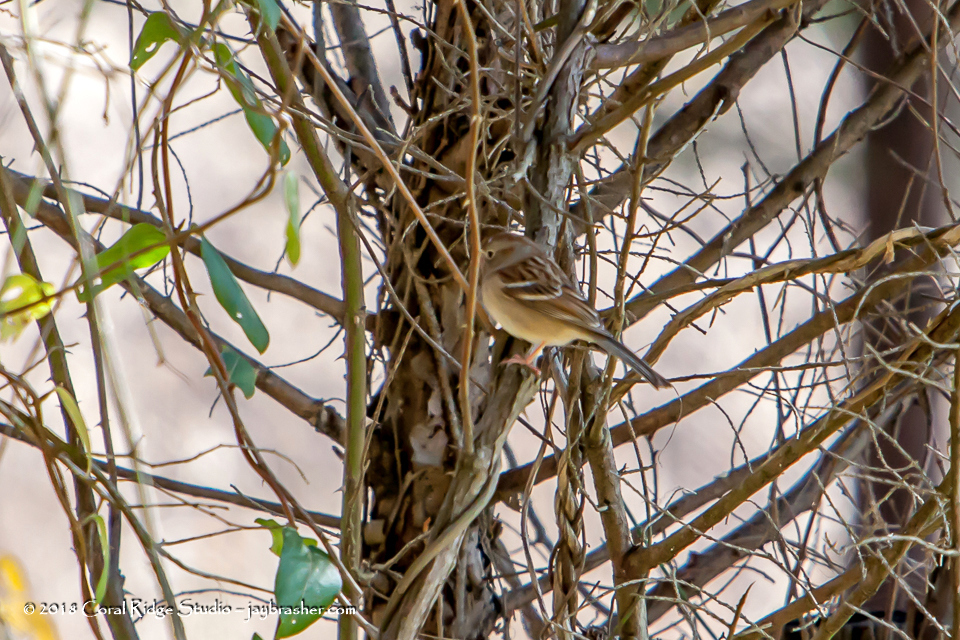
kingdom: Animalia
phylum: Chordata
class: Aves
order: Passeriformes
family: Passerellidae
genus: Spizella
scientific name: Spizella pusilla
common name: Field sparrow
